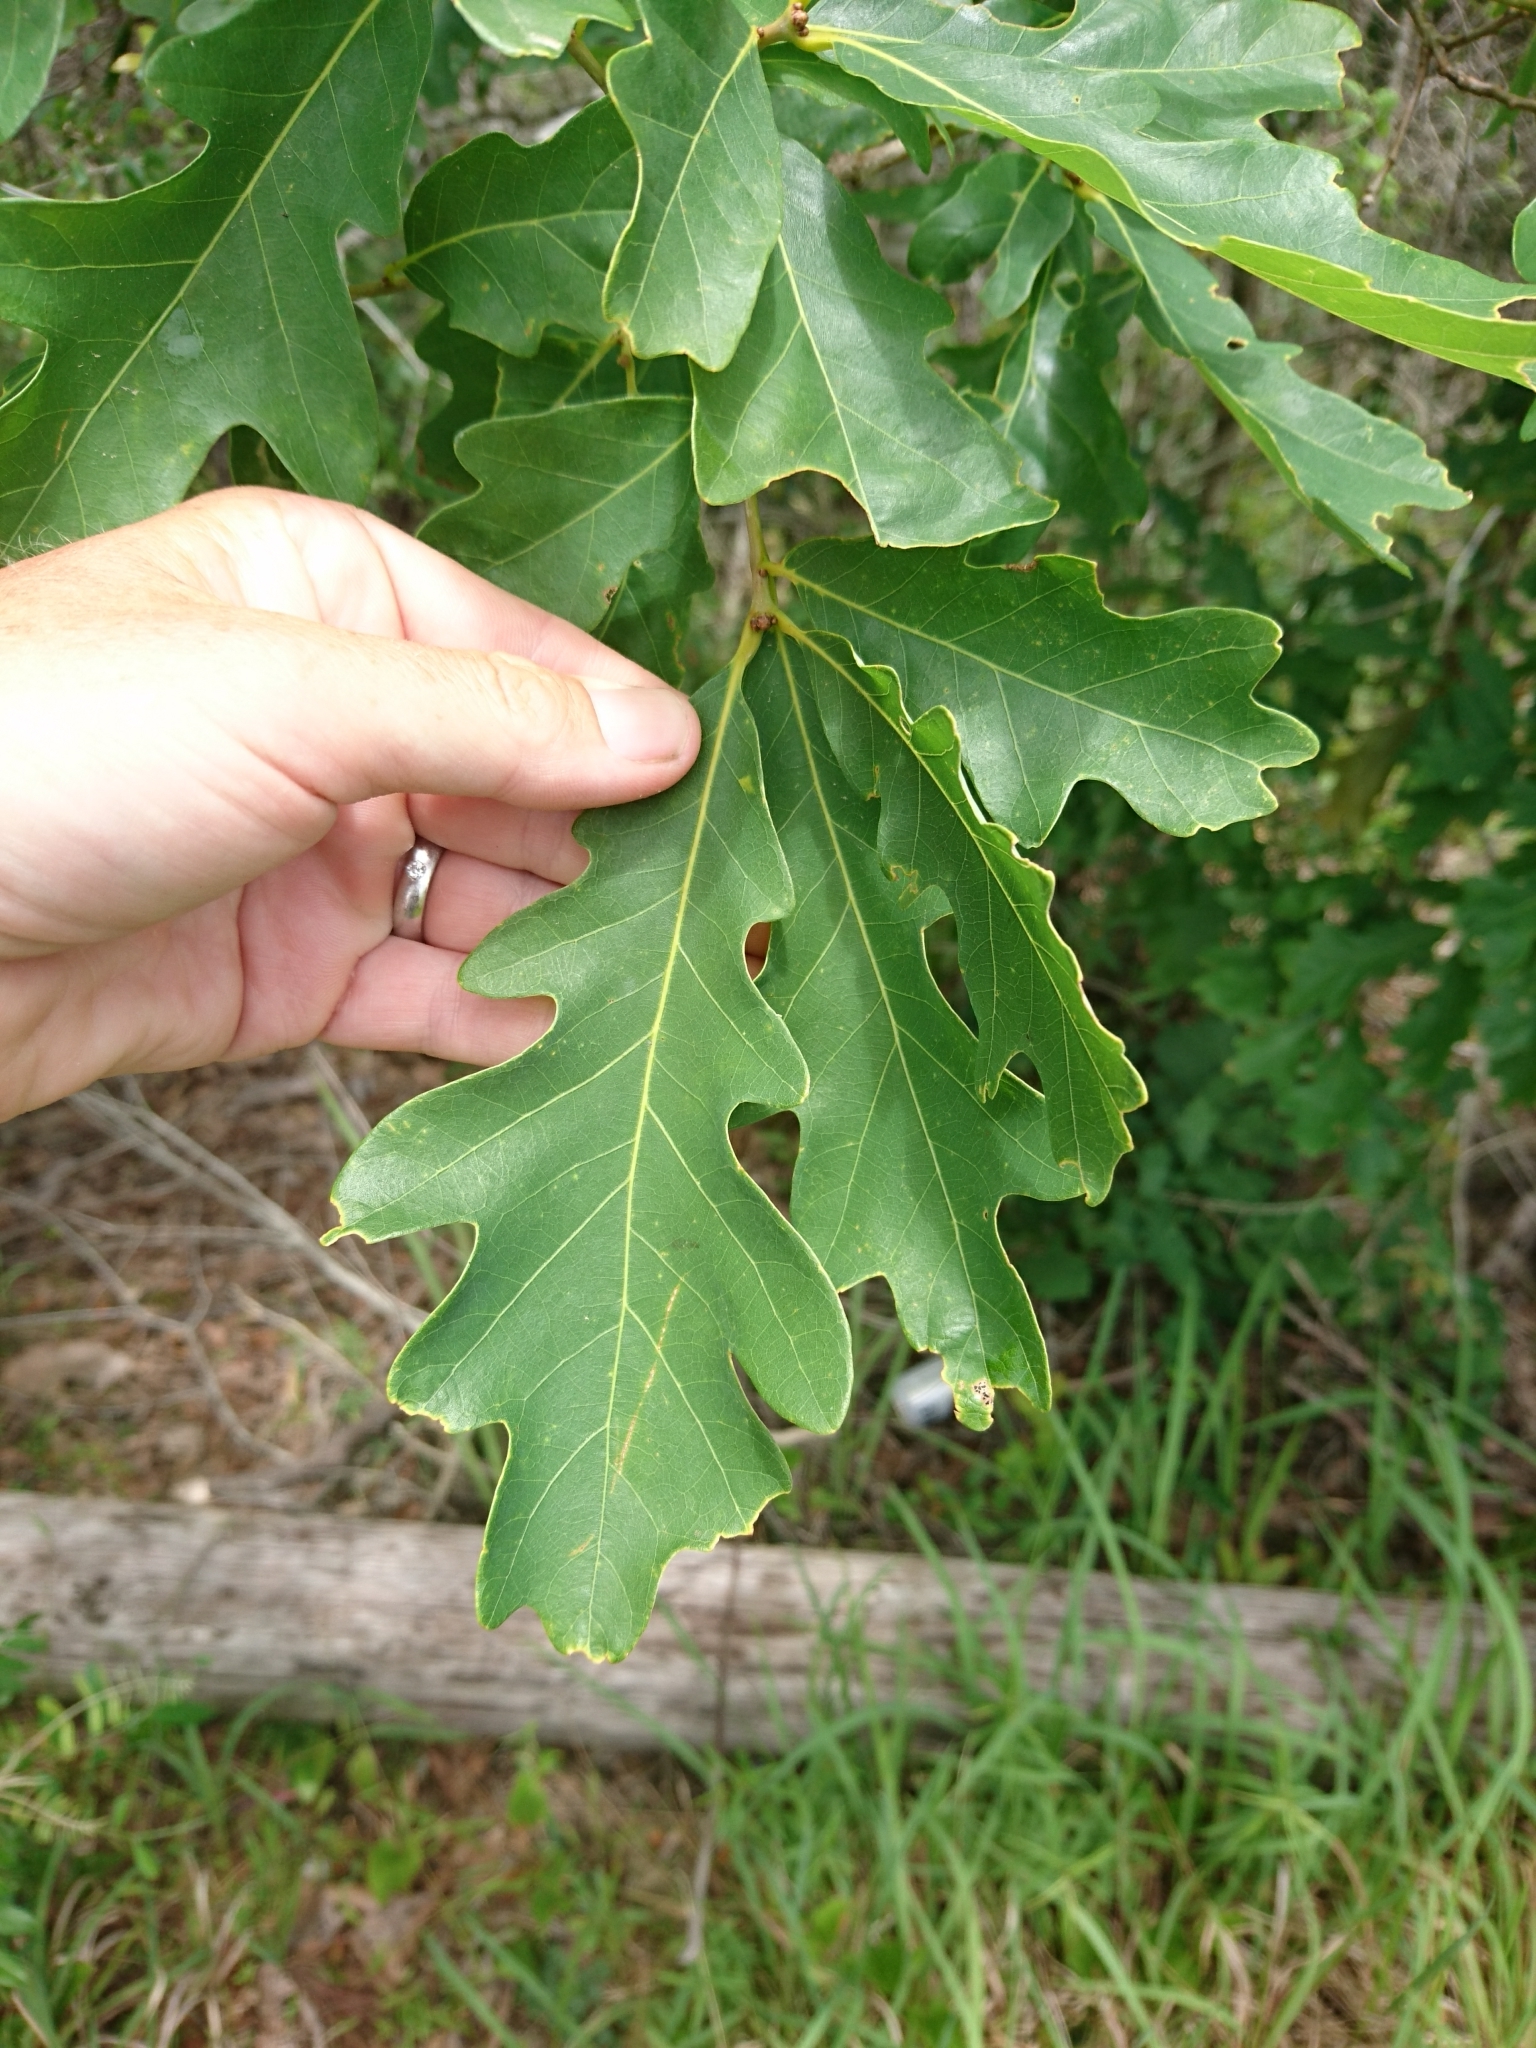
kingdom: Plantae
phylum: Tracheophyta
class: Magnoliopsida
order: Fagales
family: Fagaceae
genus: Quercus
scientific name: Quercus alba
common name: White oak
